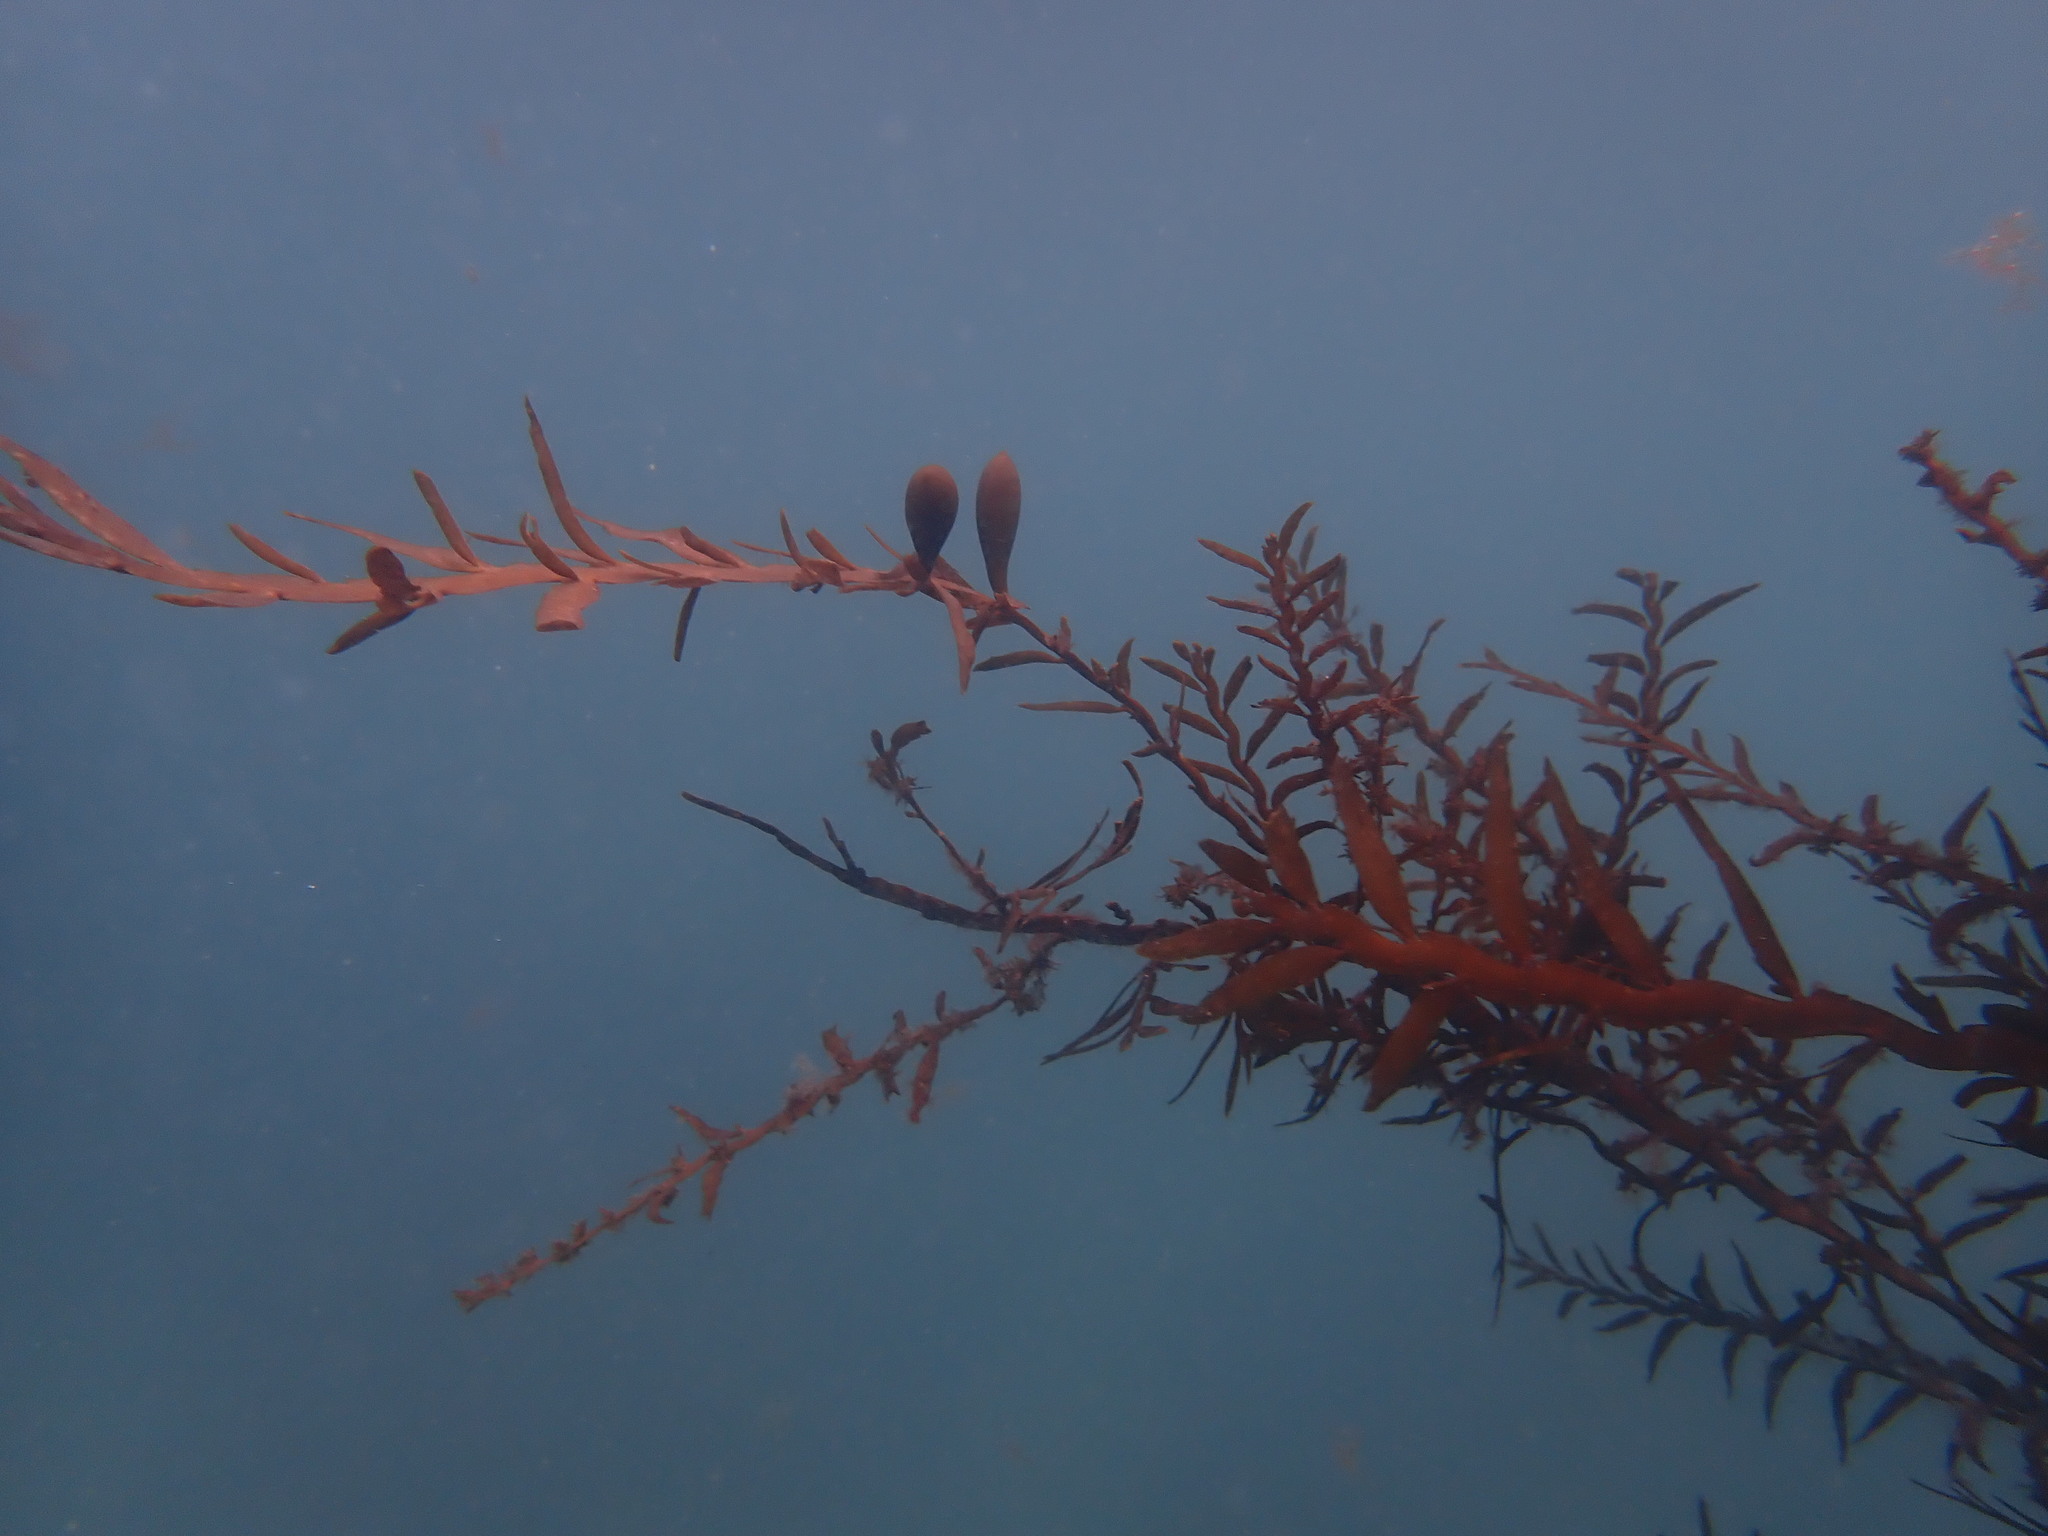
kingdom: Chromista
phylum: Ochrophyta
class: Phaeophyceae
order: Fucales
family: Sargassaceae
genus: Carpophyllum
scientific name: Carpophyllum maschalocarpum
